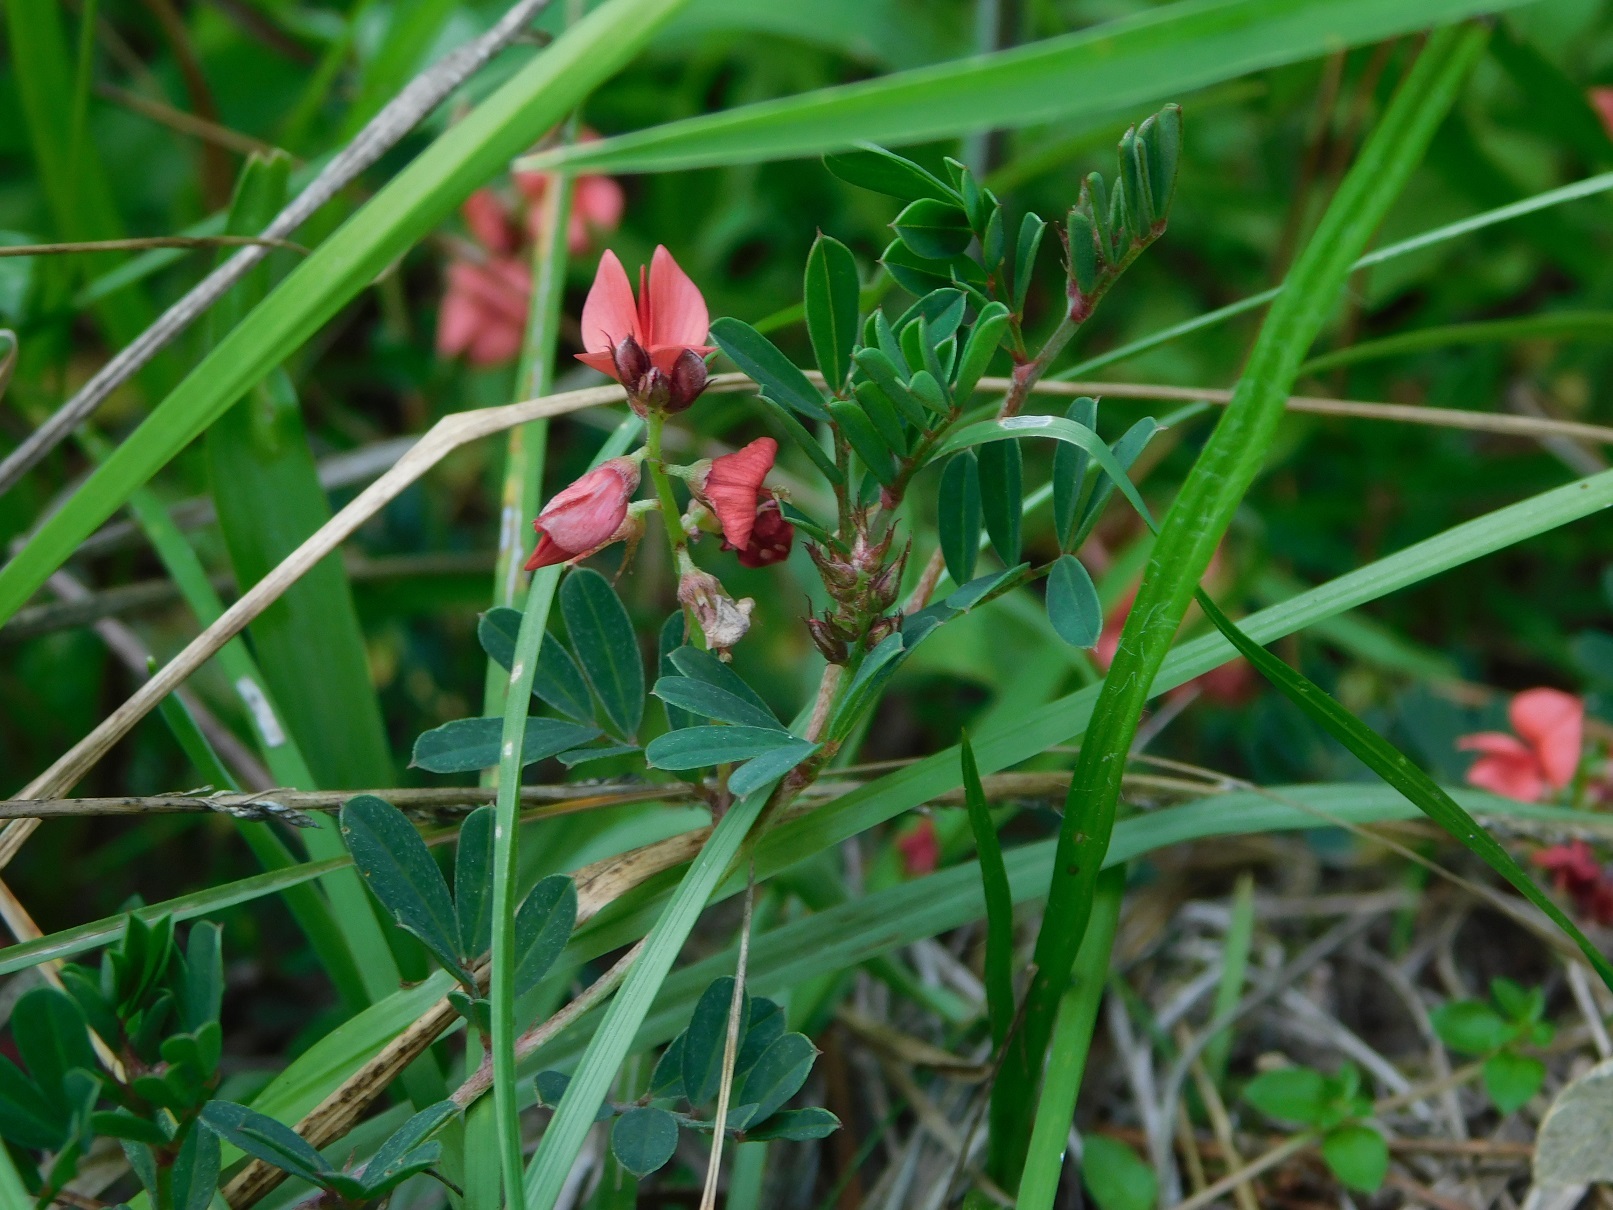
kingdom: Plantae
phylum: Tracheophyta
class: Magnoliopsida
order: Fabales
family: Fabaceae
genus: Indigofera
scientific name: Indigofera miniata
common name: Coast indigo
